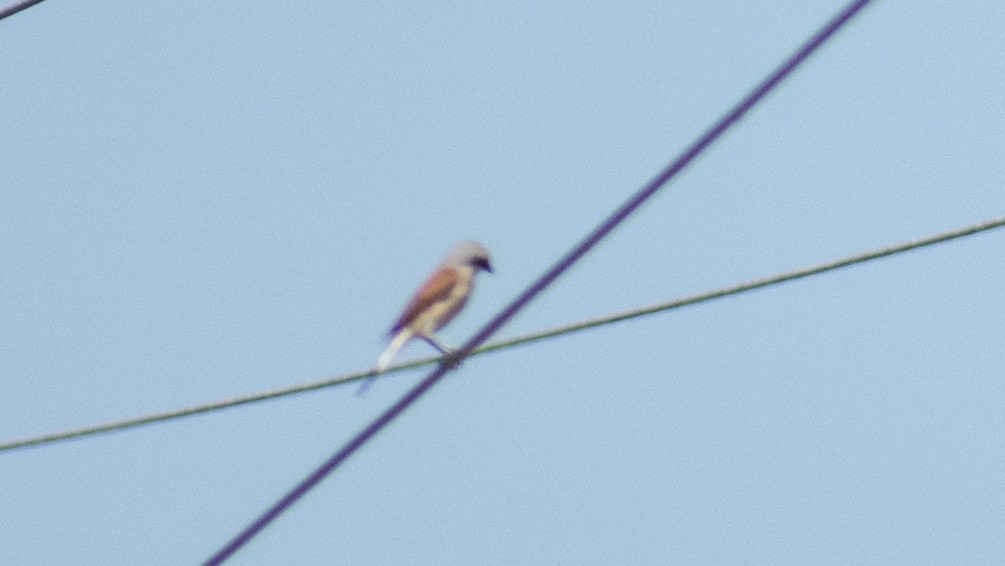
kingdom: Animalia
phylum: Chordata
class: Aves
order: Passeriformes
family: Laniidae
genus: Lanius
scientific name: Lanius collurio
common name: Red-backed shrike
